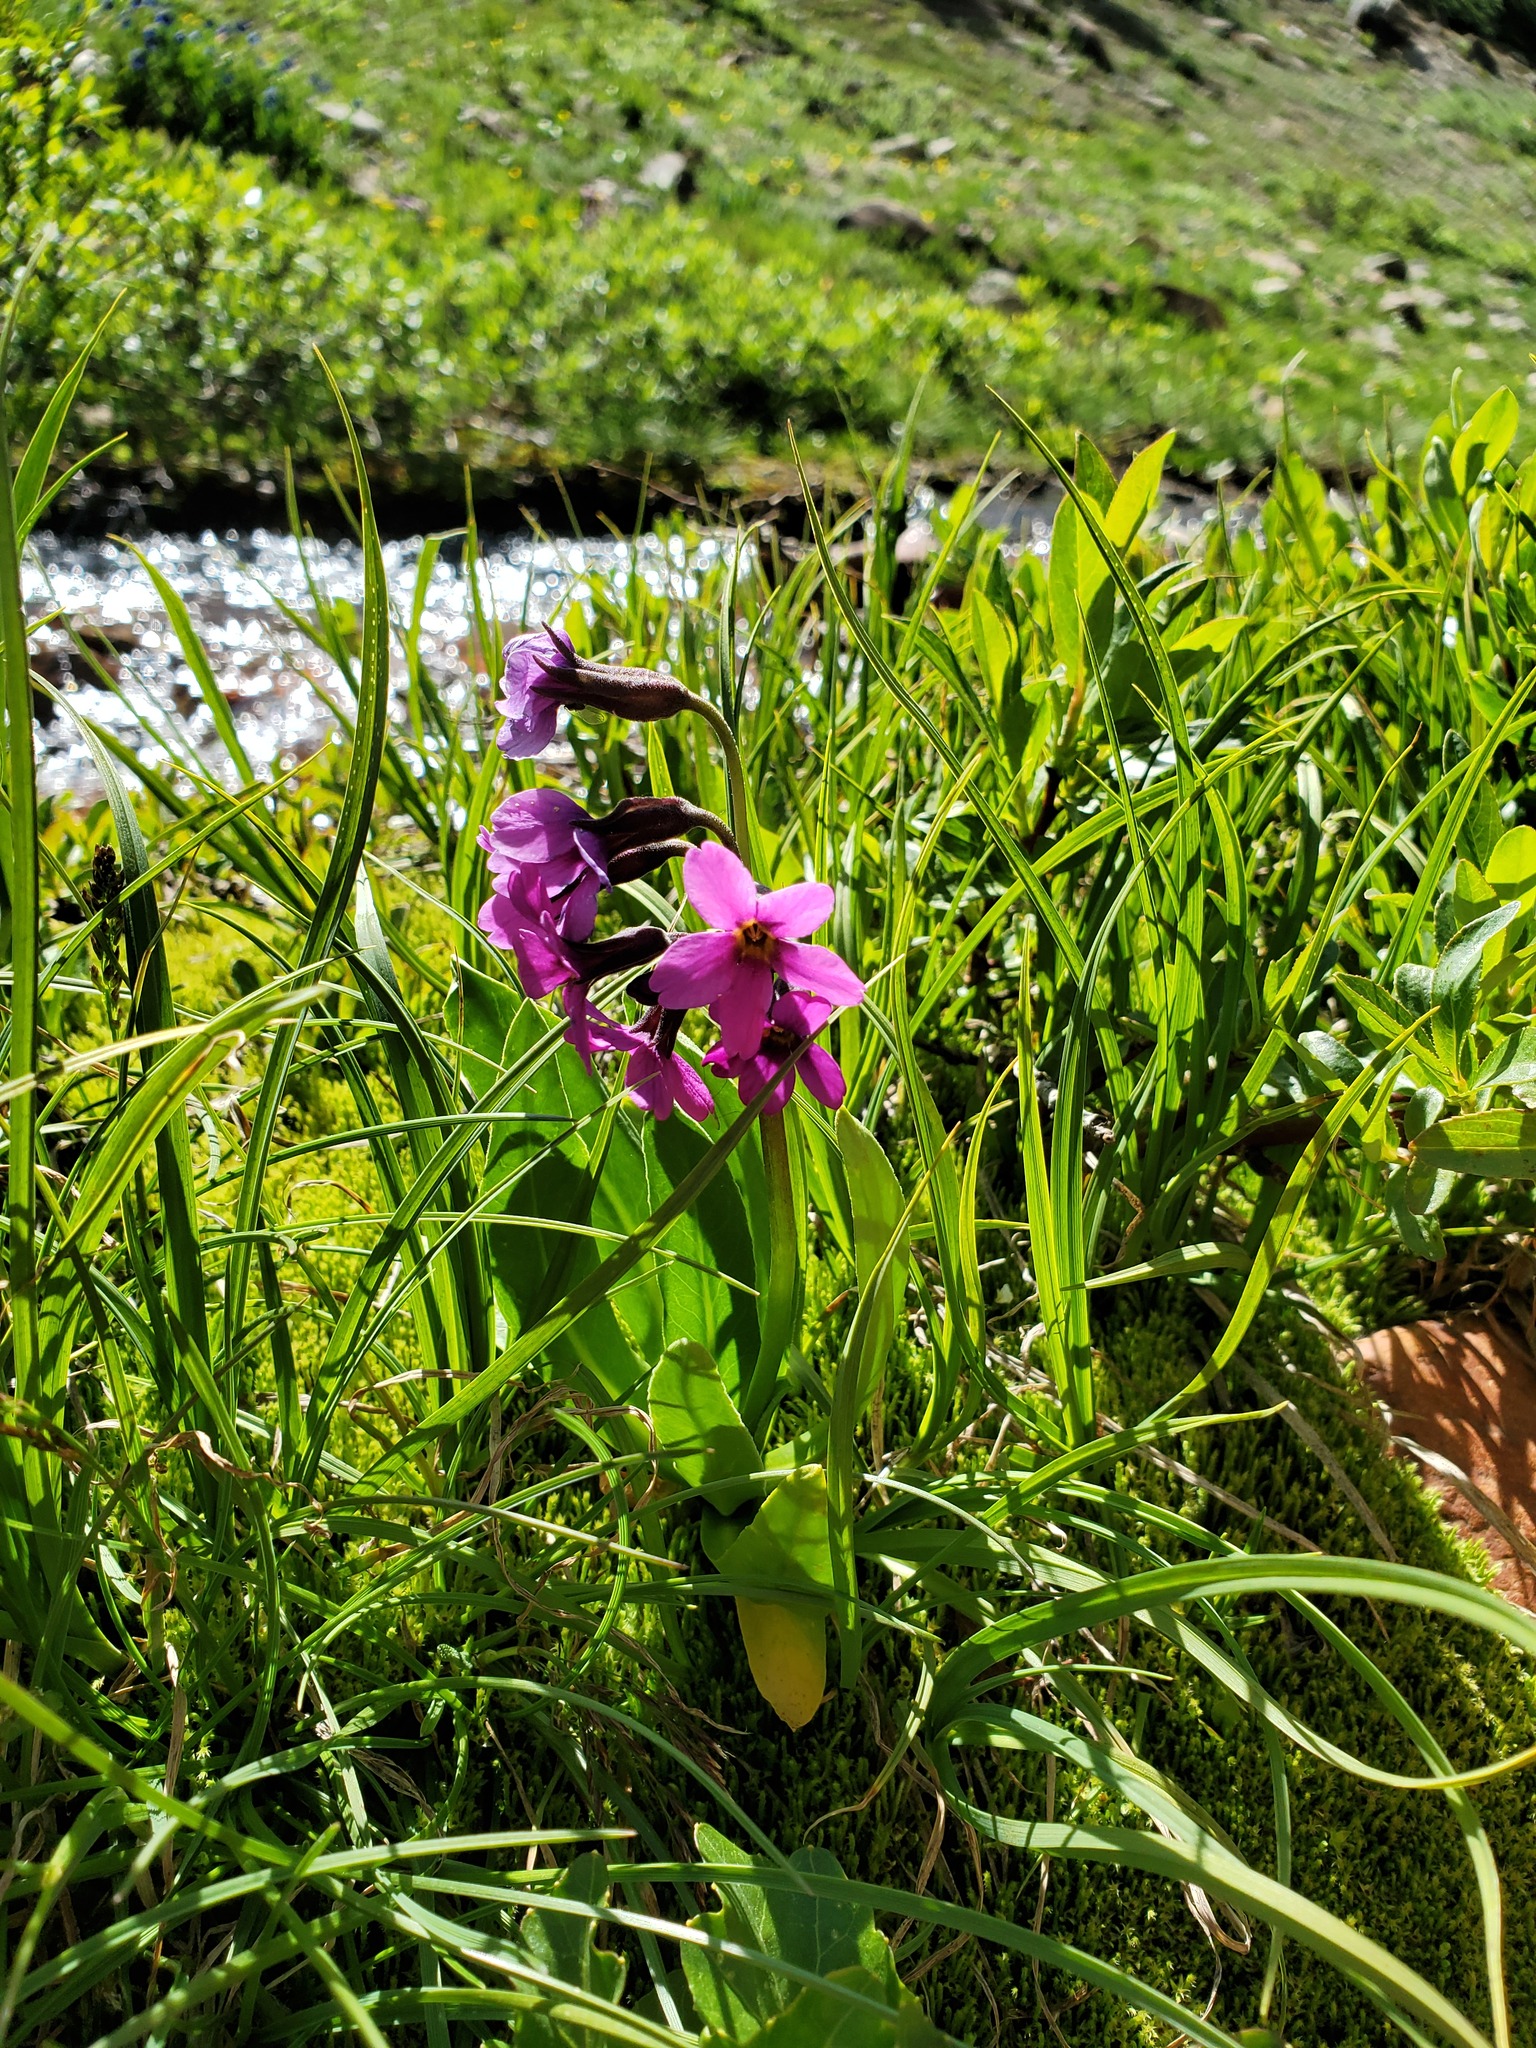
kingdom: Plantae
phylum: Tracheophyta
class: Magnoliopsida
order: Ericales
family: Primulaceae
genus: Primula
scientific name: Primula parryi
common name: Parry's primrose
